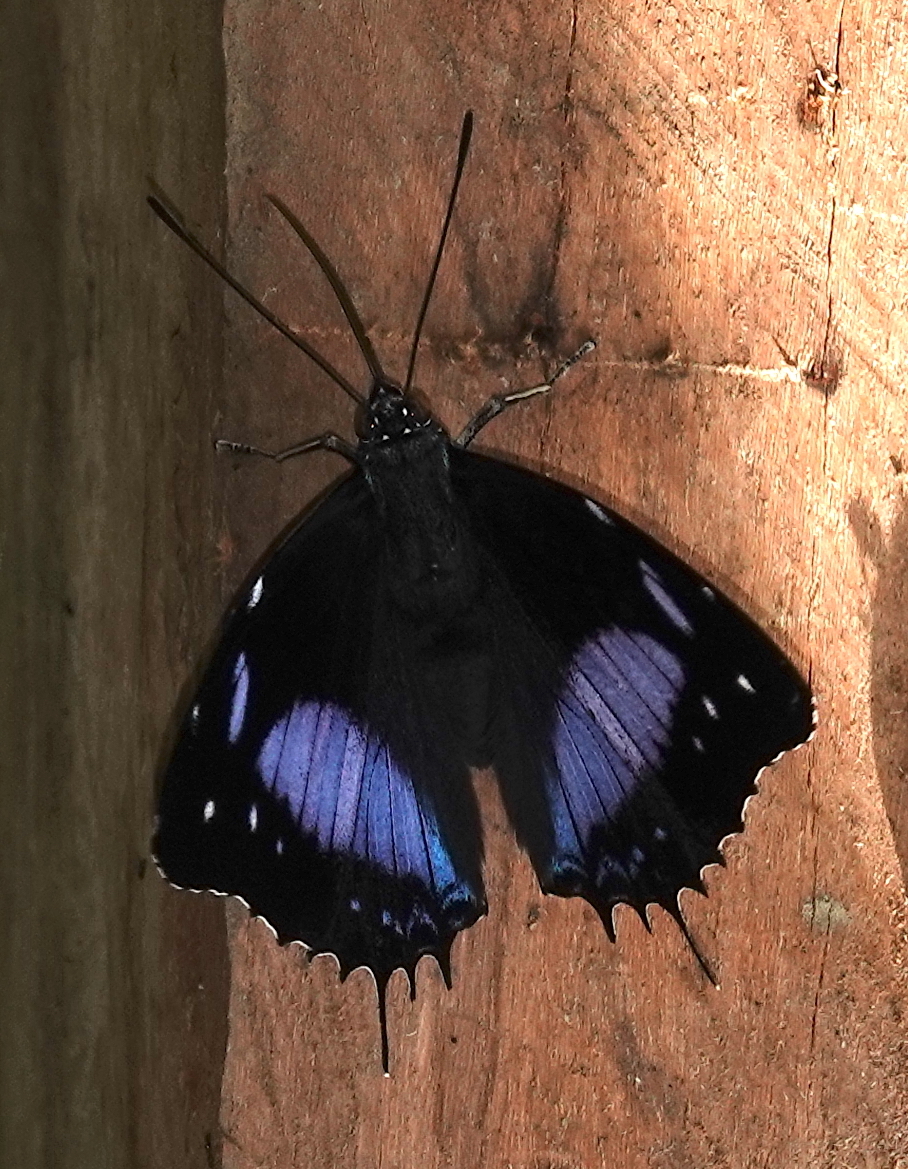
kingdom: Animalia
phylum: Arthropoda
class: Insecta
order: Lepidoptera
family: Nymphalidae
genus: Baeotus
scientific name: Baeotus beotus
